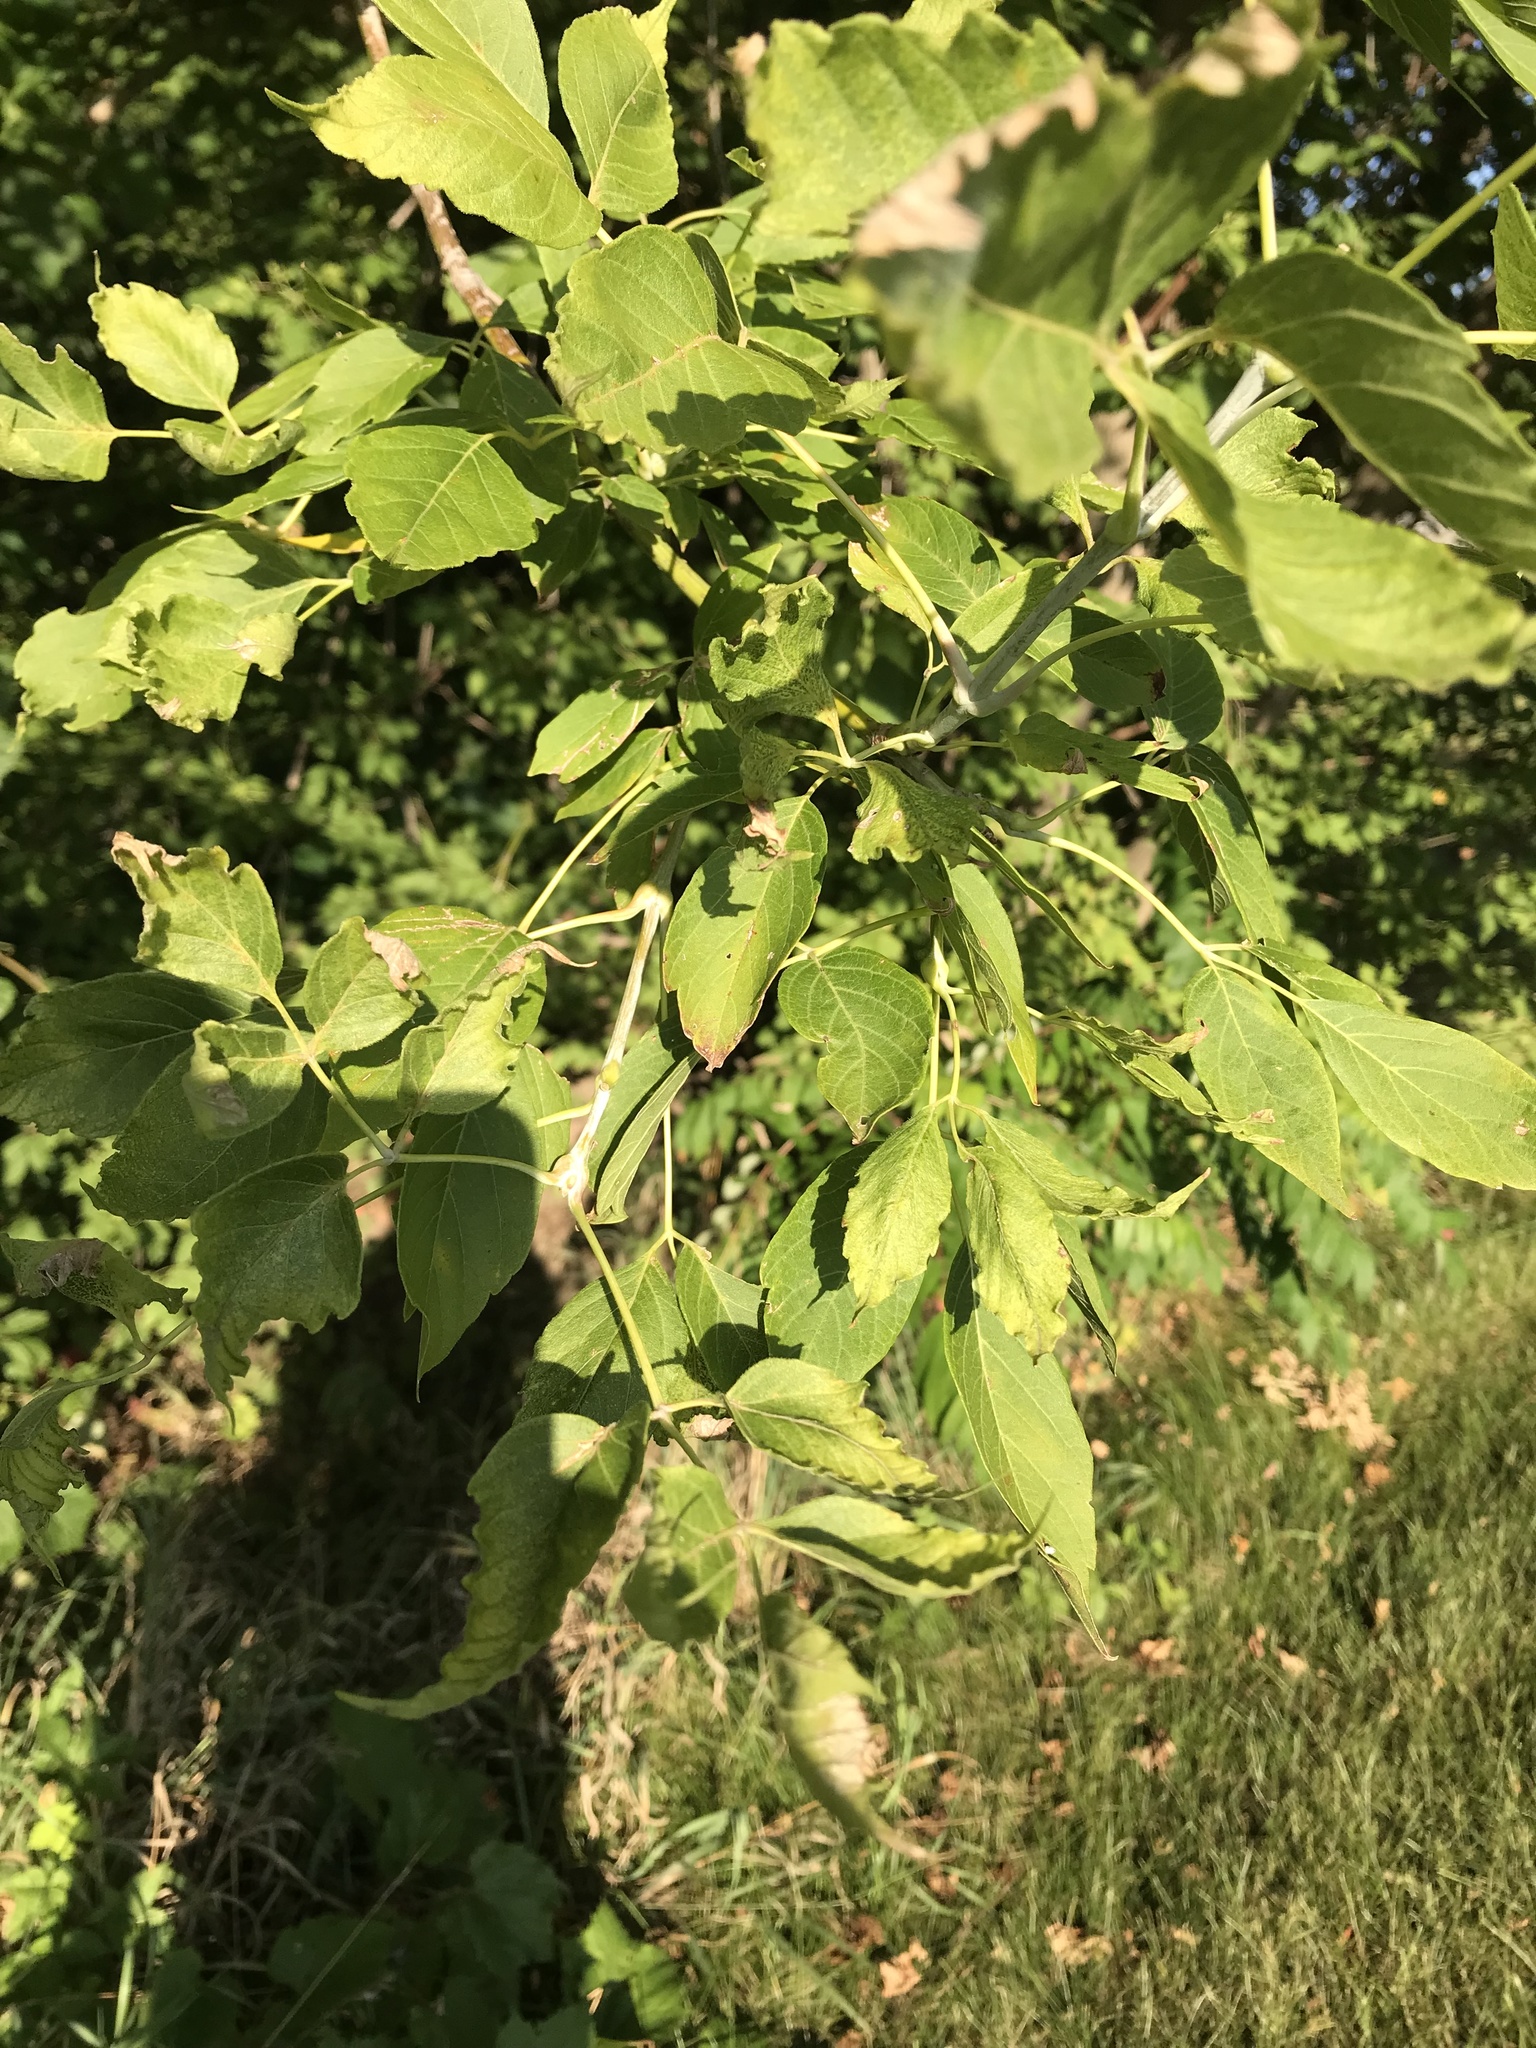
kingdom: Plantae
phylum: Tracheophyta
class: Magnoliopsida
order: Sapindales
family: Sapindaceae
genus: Acer
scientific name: Acer negundo
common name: Ashleaf maple
